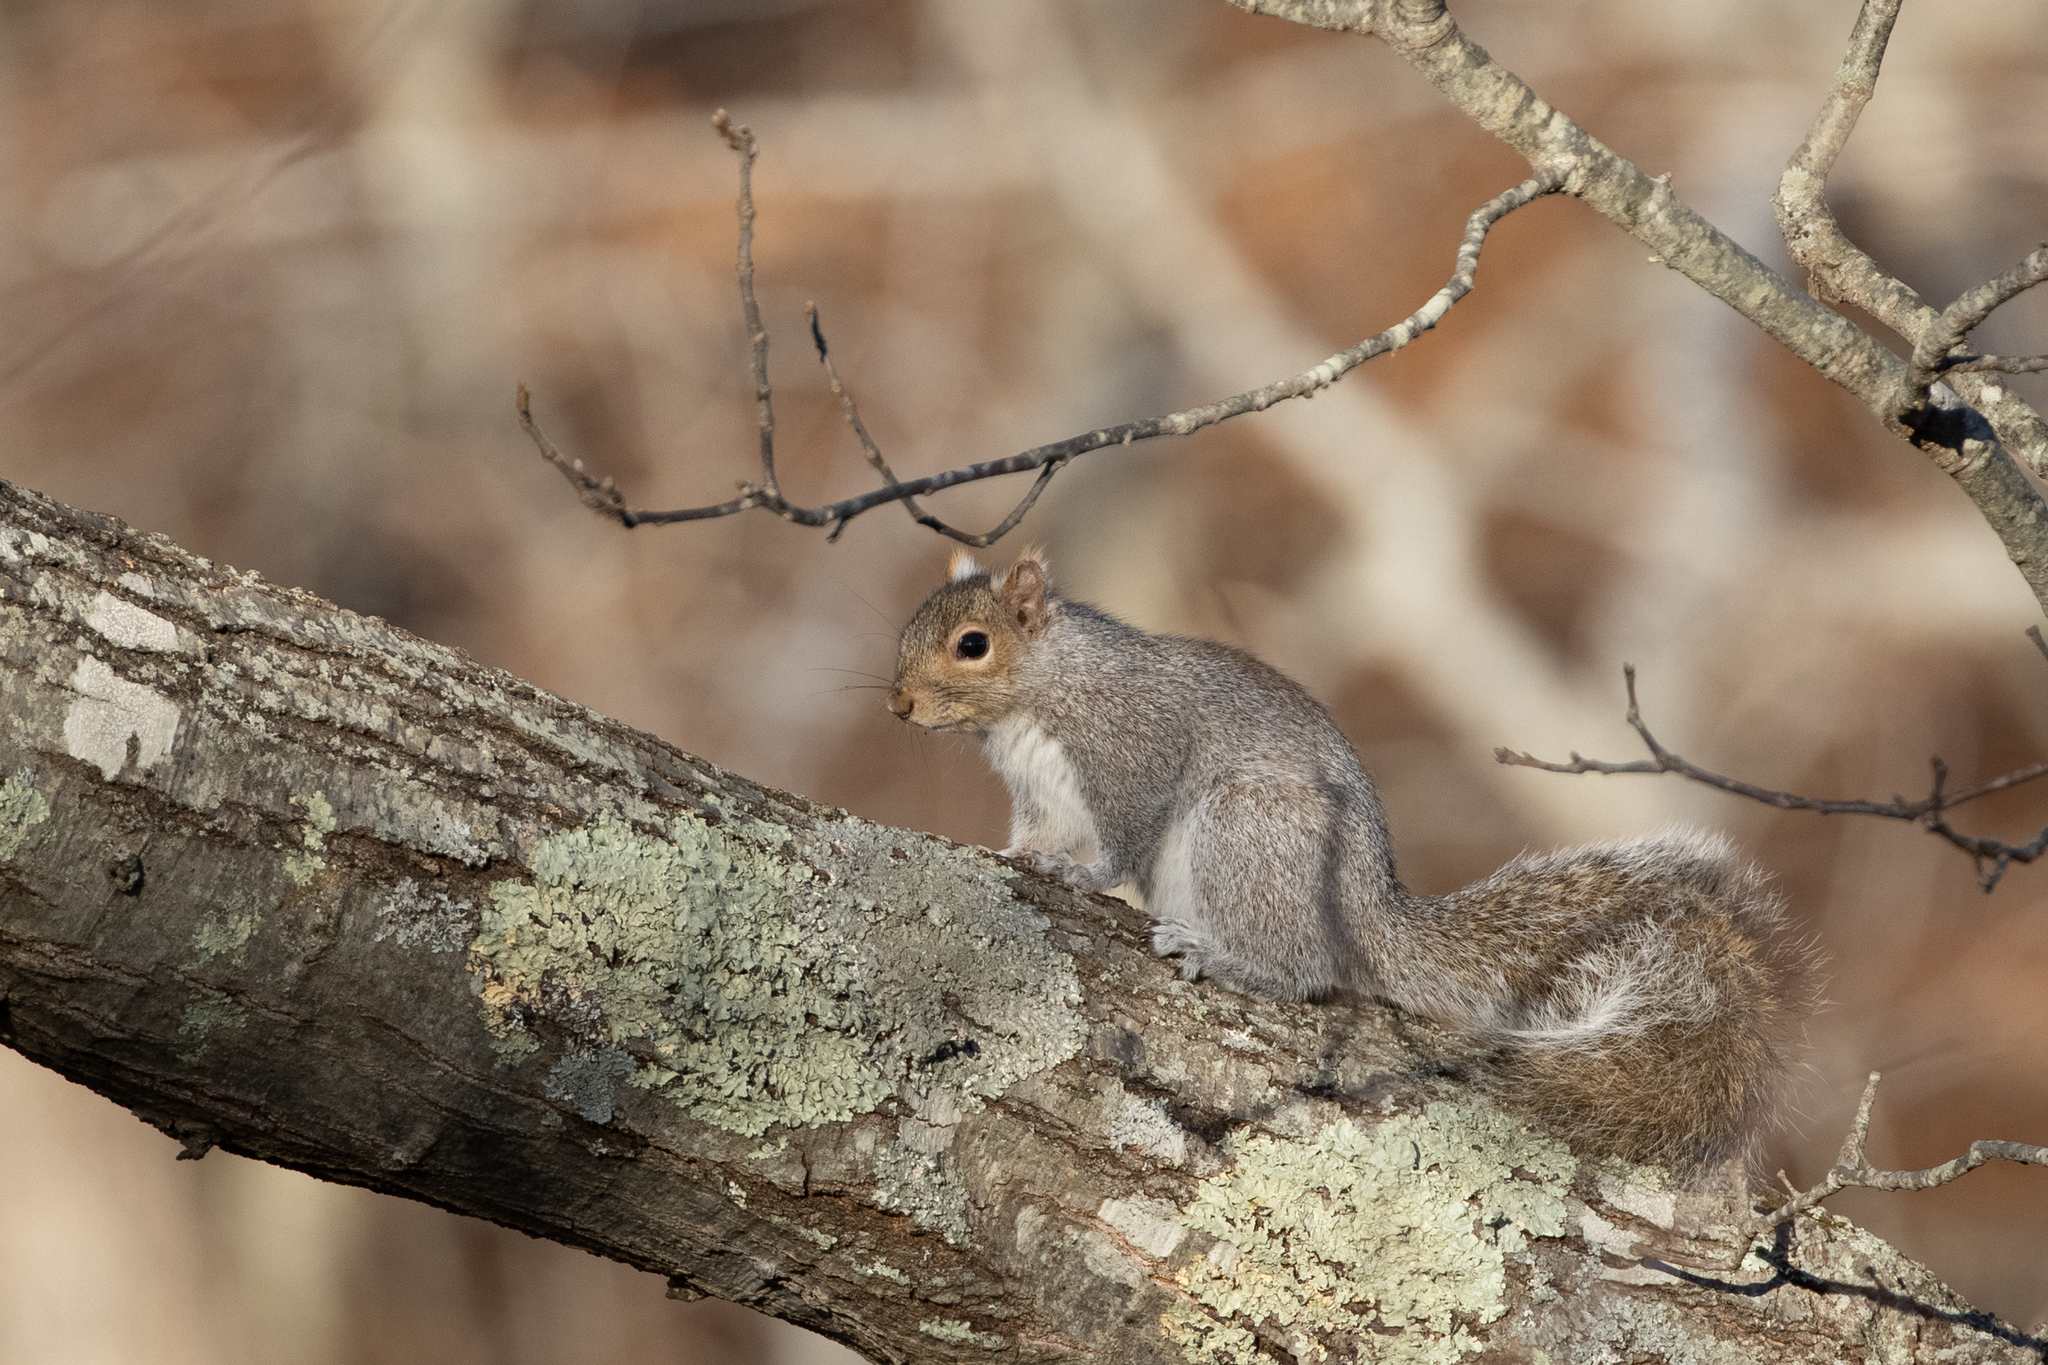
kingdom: Animalia
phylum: Chordata
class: Mammalia
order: Rodentia
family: Sciuridae
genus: Sciurus
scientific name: Sciurus carolinensis
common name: Eastern gray squirrel
